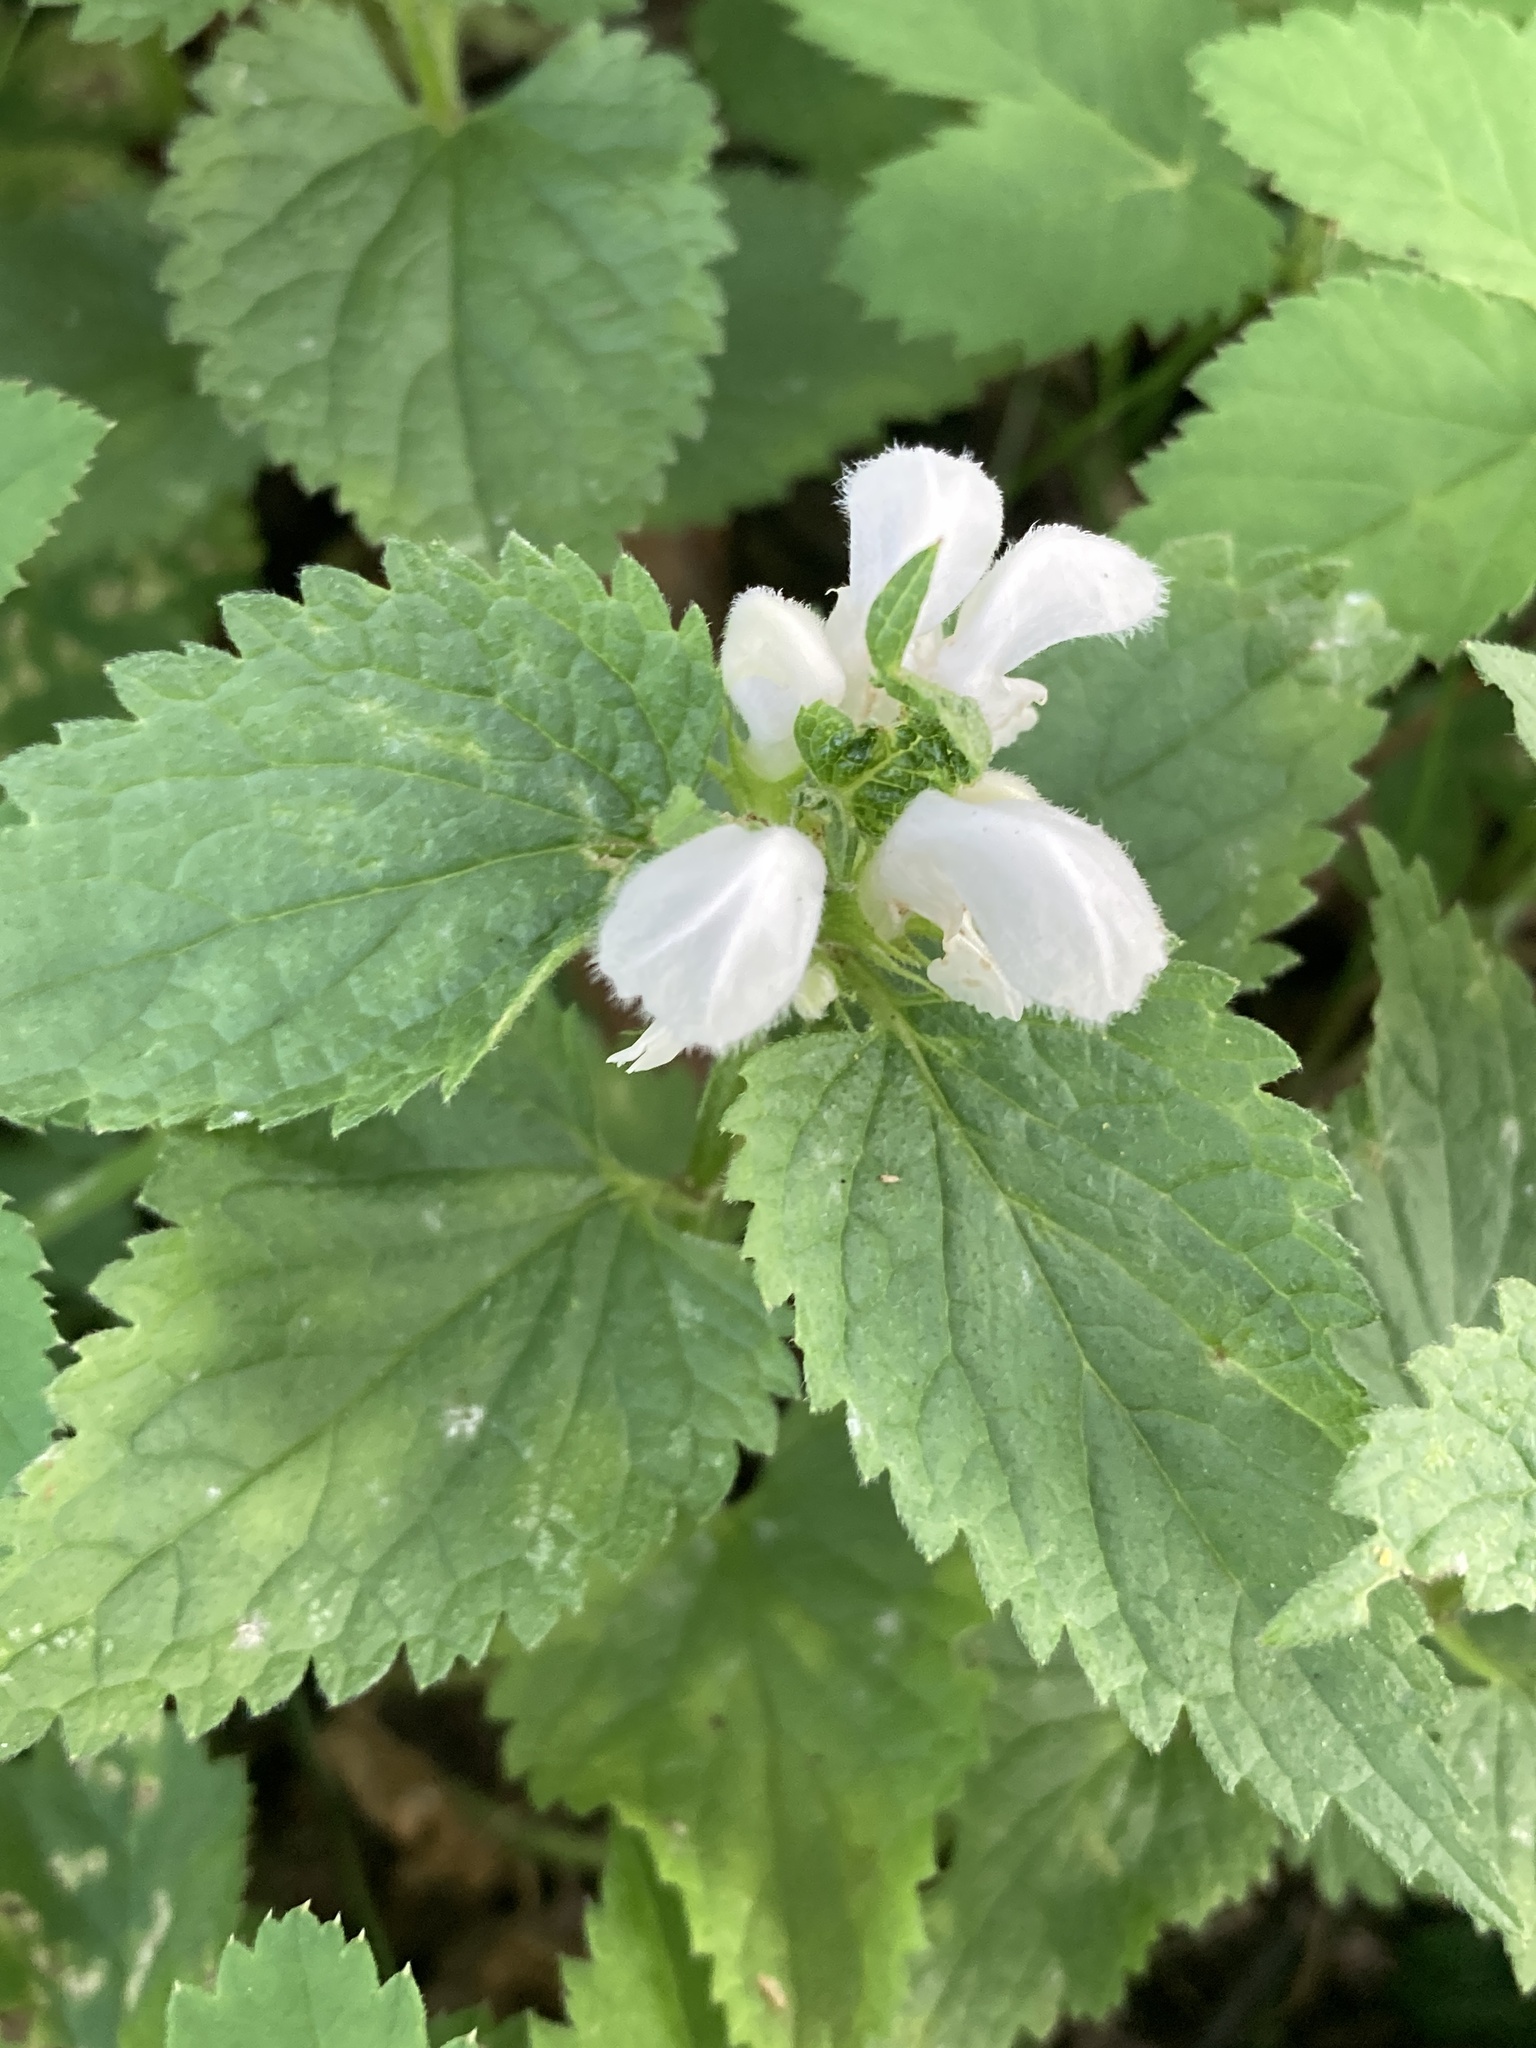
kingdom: Plantae
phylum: Tracheophyta
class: Magnoliopsida
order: Lamiales
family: Lamiaceae
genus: Lamium
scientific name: Lamium album
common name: White dead-nettle
